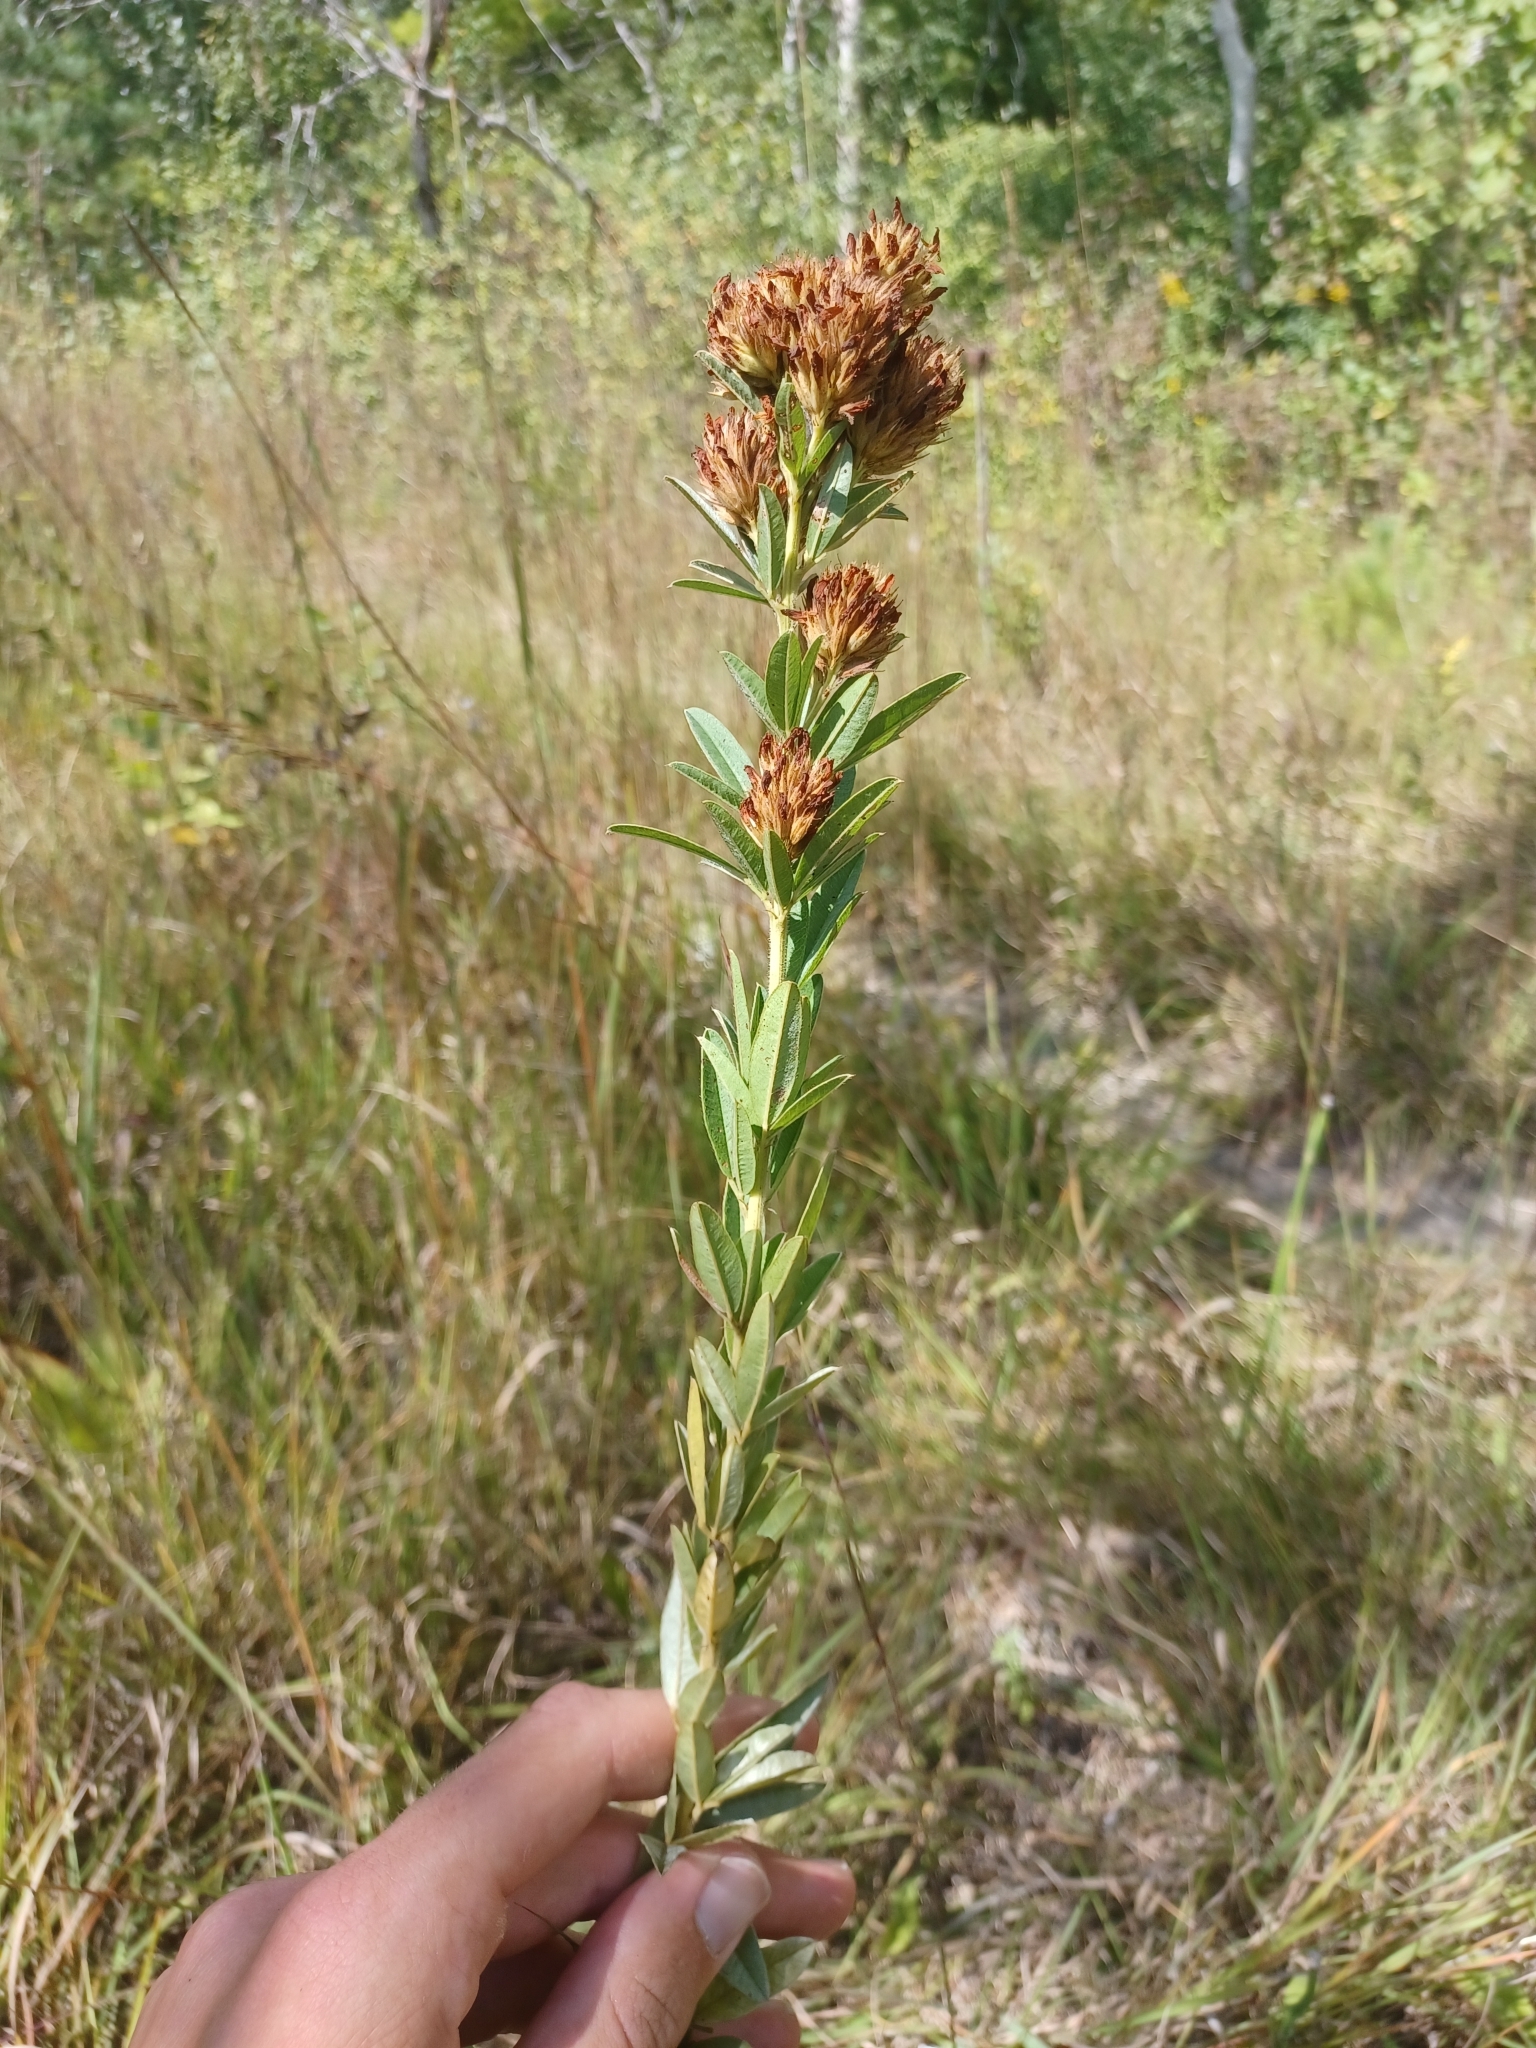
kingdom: Plantae
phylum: Tracheophyta
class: Magnoliopsida
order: Fabales
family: Fabaceae
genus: Lespedeza
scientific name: Lespedeza capitata
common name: Dusty clover
